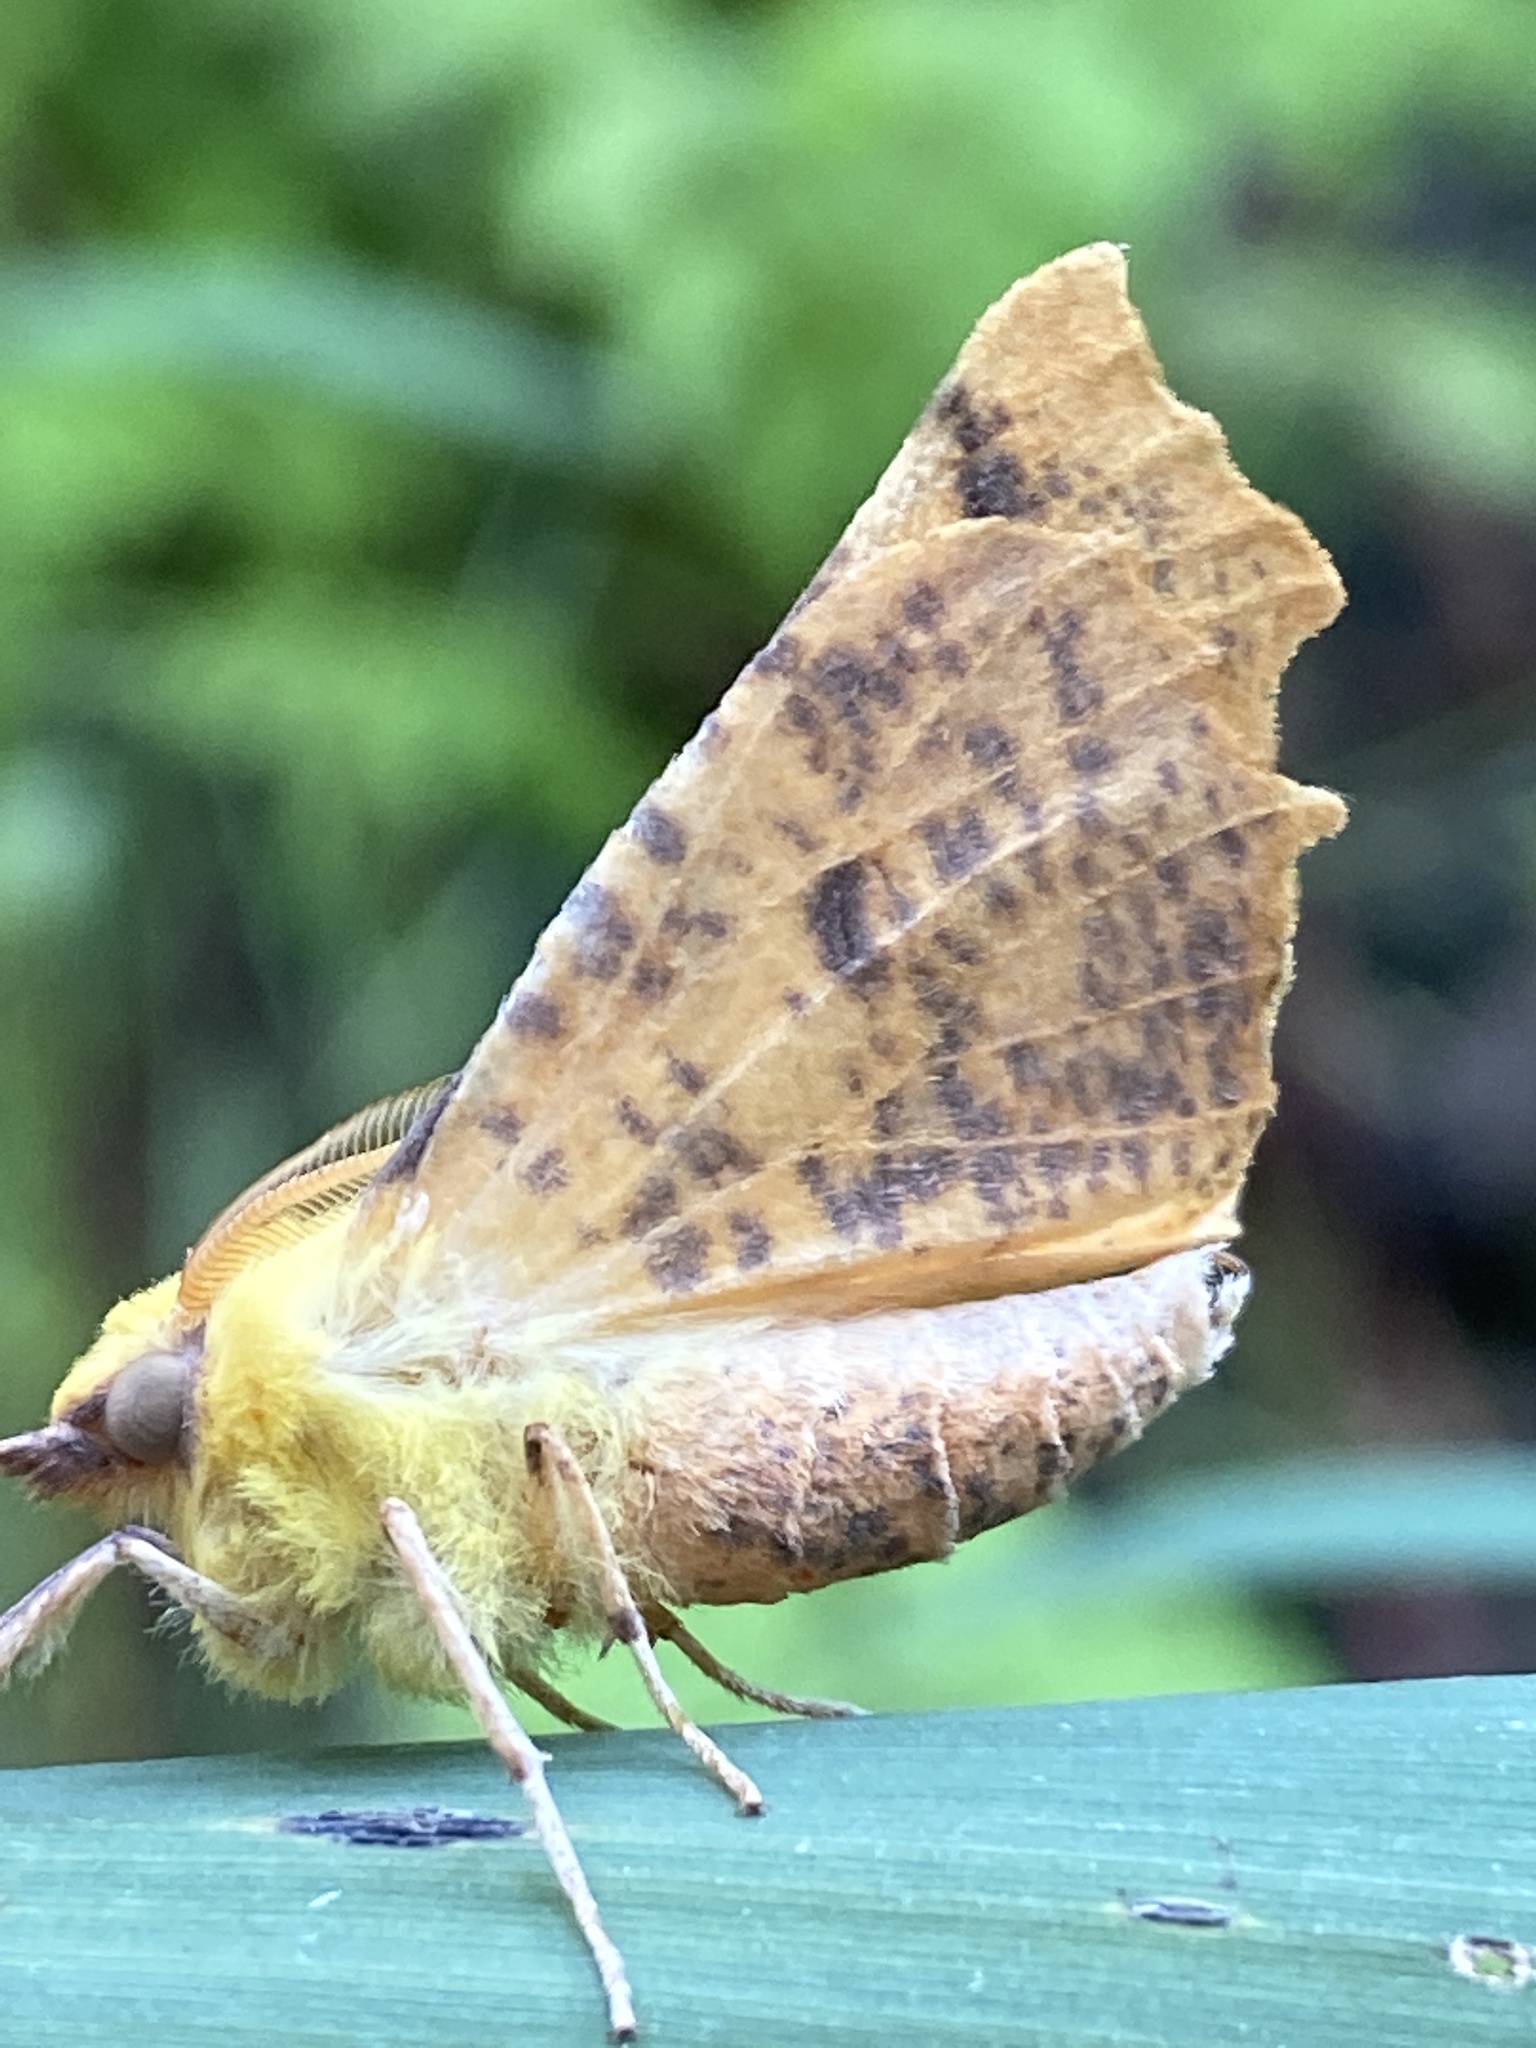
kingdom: Animalia
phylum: Arthropoda
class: Insecta
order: Lepidoptera
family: Geometridae
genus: Ennomos
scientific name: Ennomos alniaria
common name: Canary-shouldered thorn
